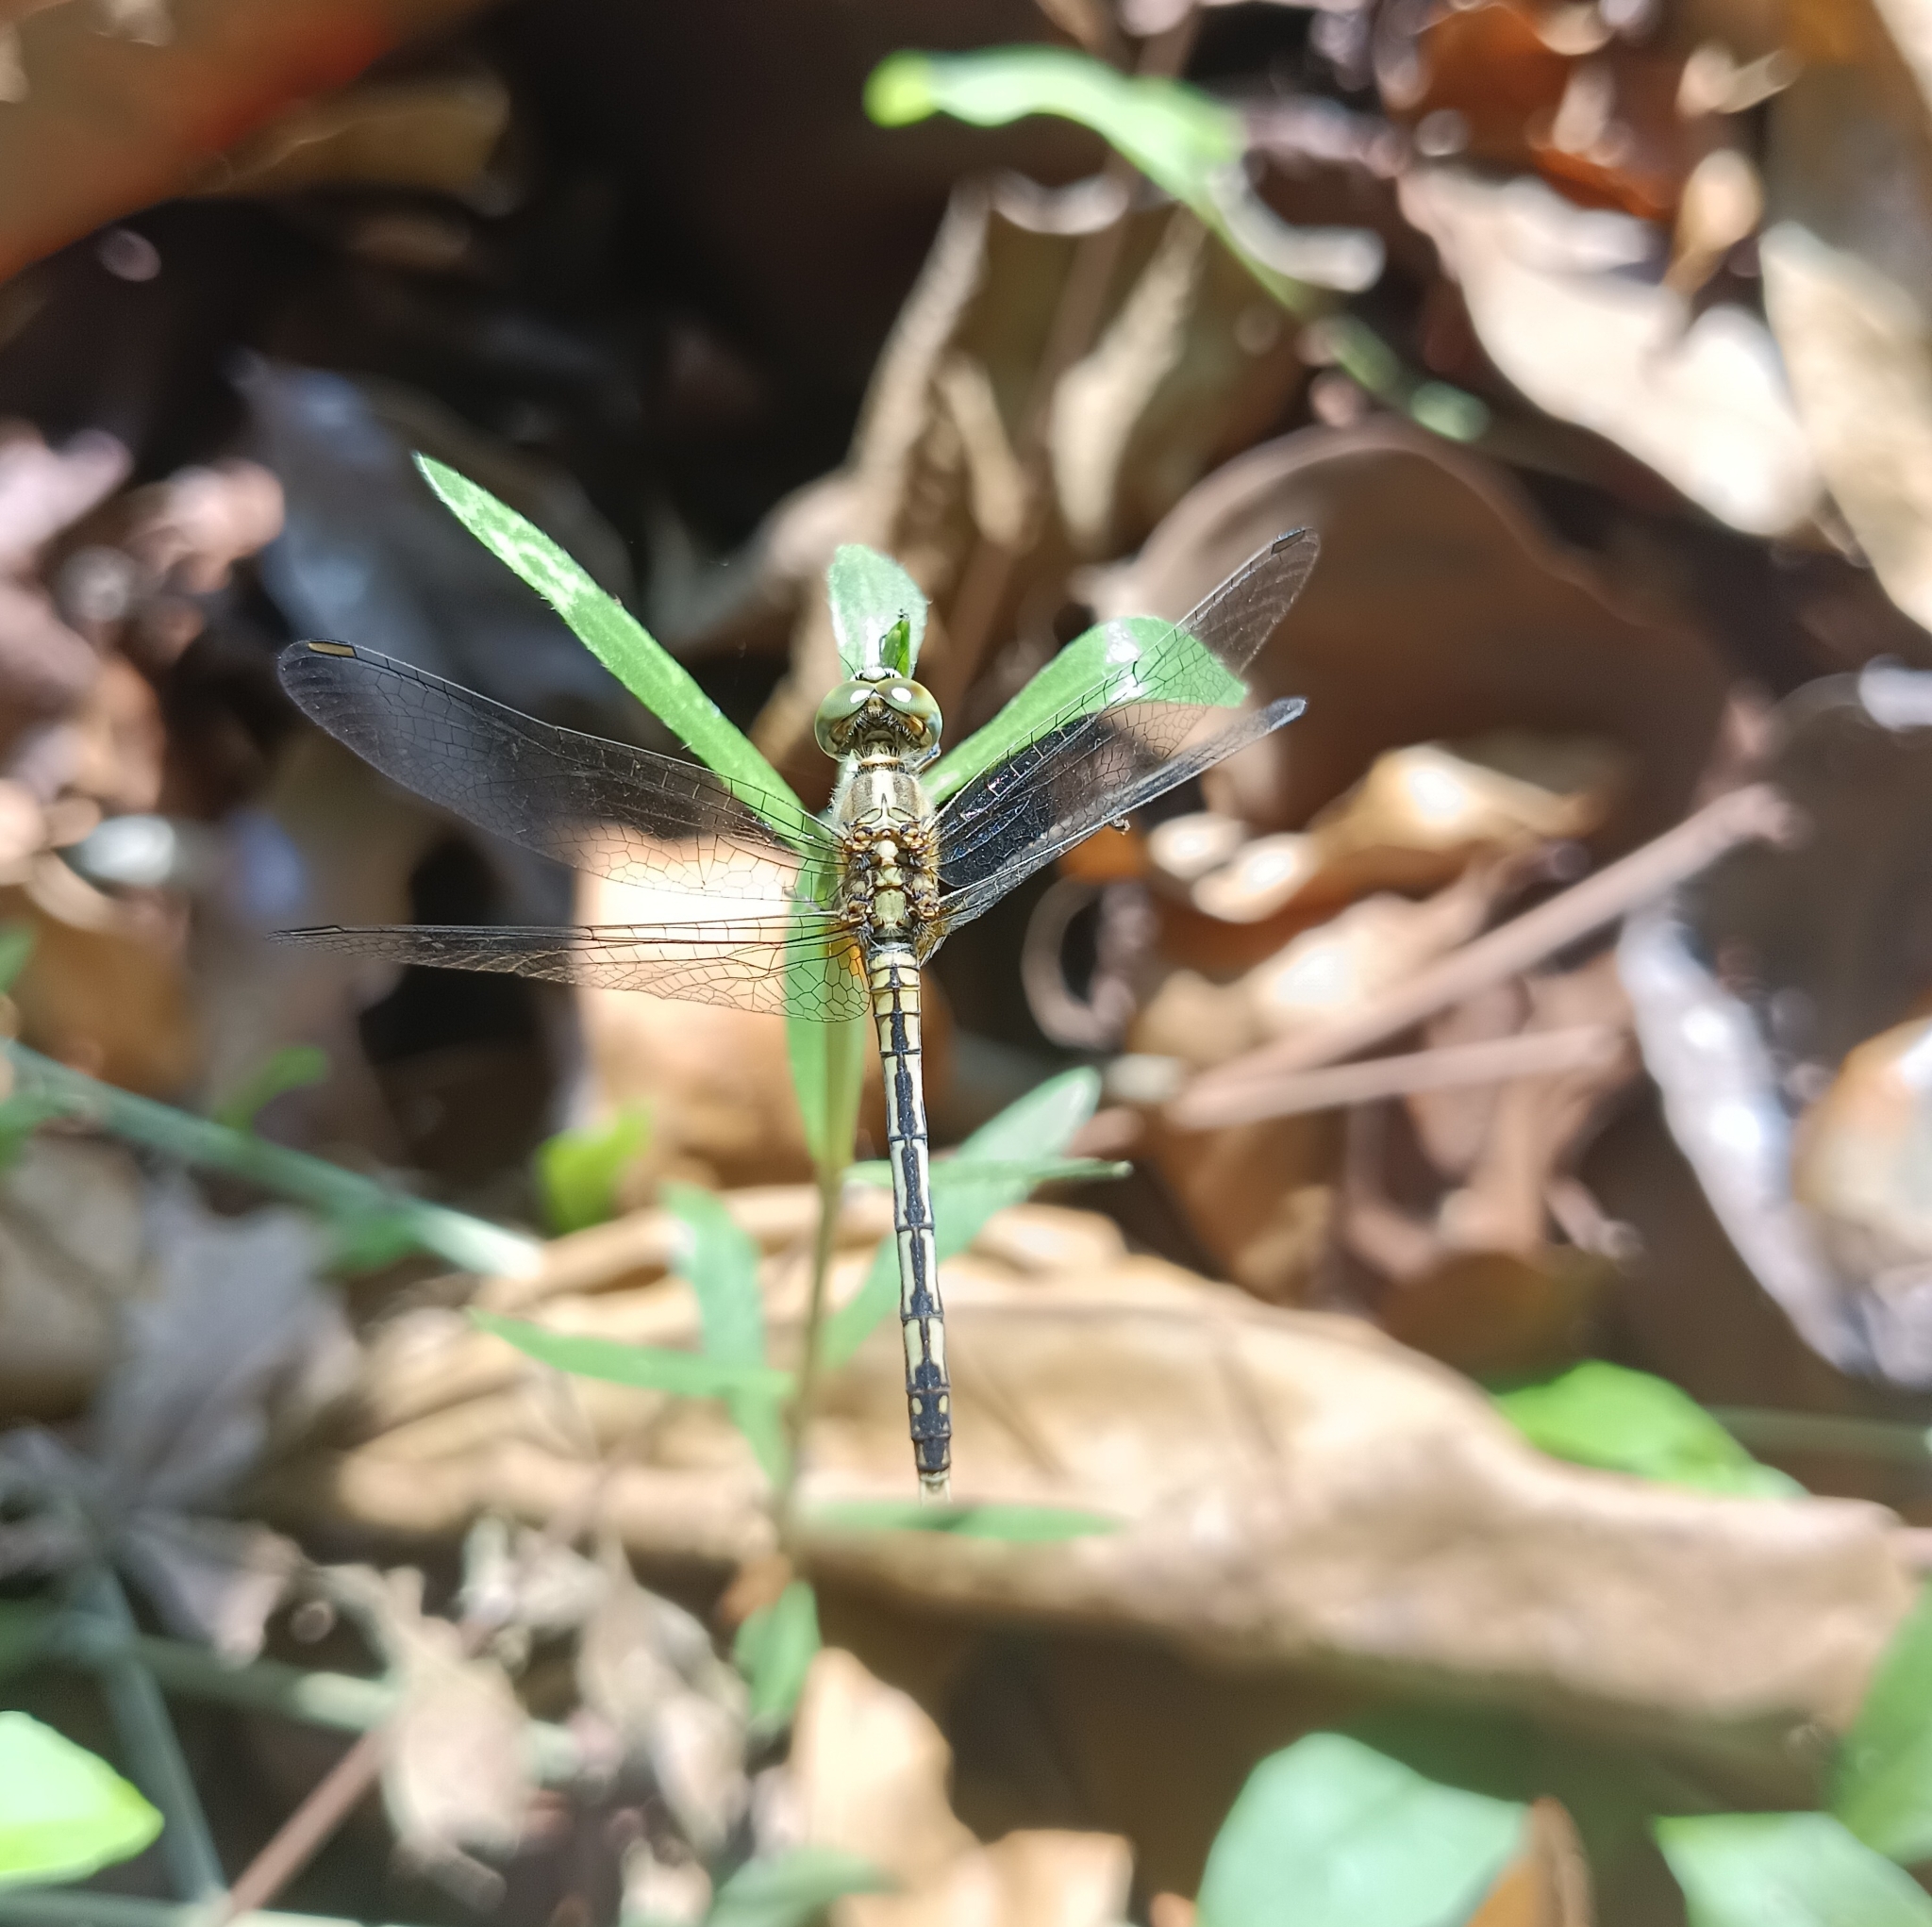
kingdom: Animalia
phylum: Arthropoda
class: Insecta
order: Odonata
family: Libellulidae
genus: Diplacodes
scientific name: Diplacodes trivialis
